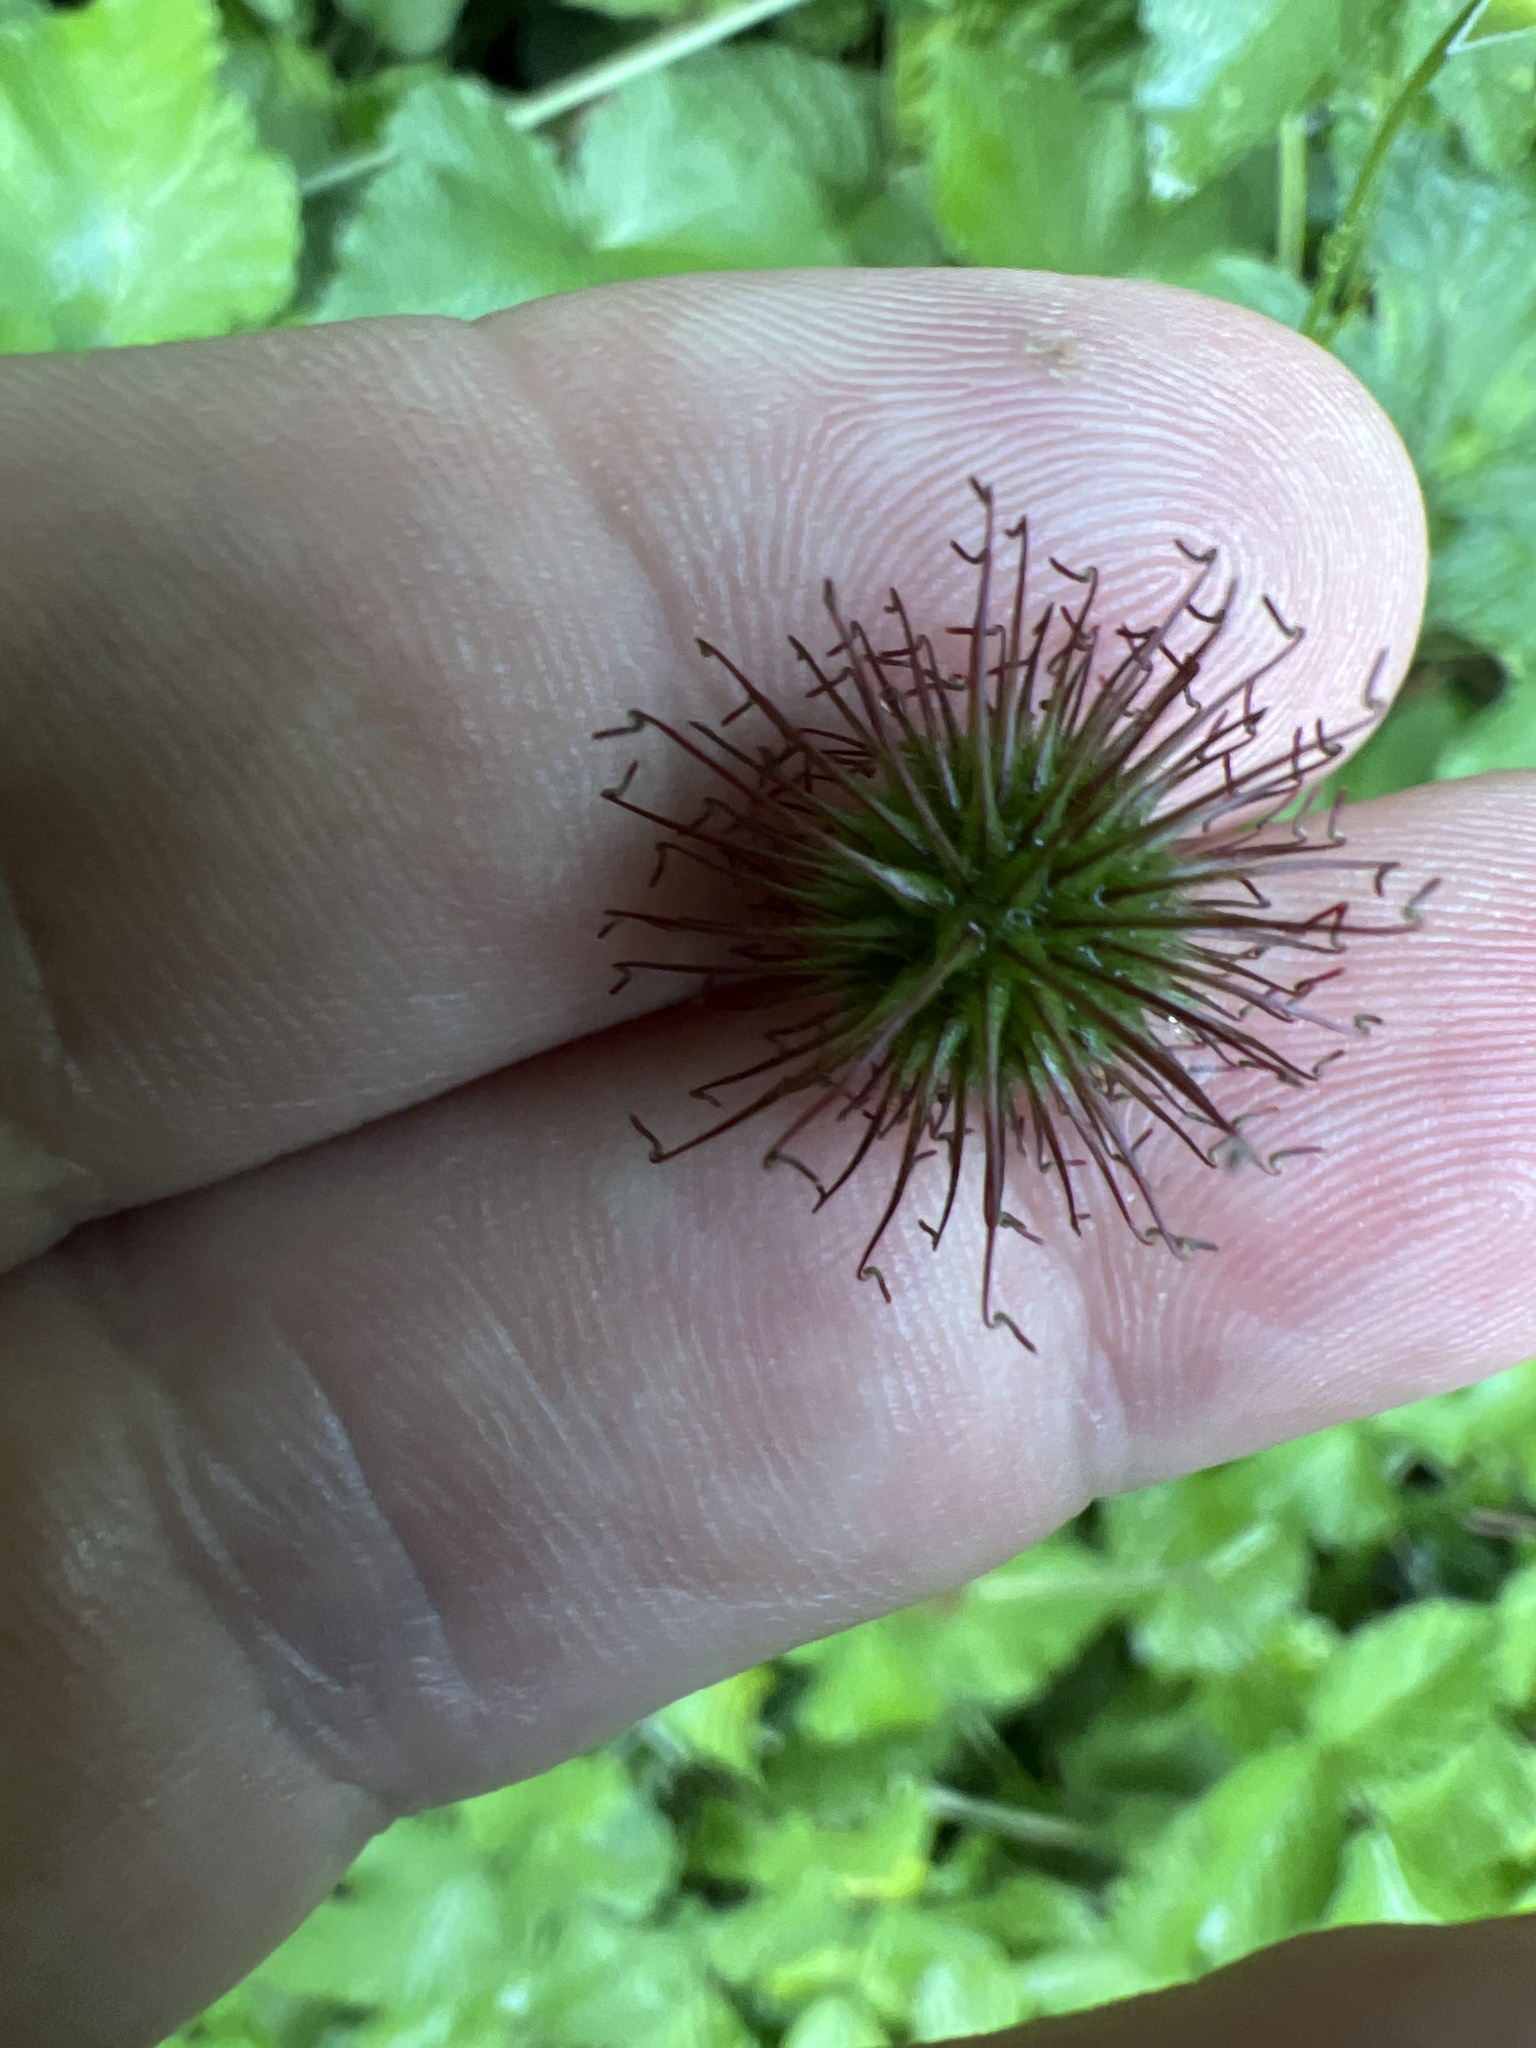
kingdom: Plantae
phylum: Tracheophyta
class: Magnoliopsida
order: Rosales
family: Rosaceae
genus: Geum
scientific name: Geum urbanum
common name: Wood avens
